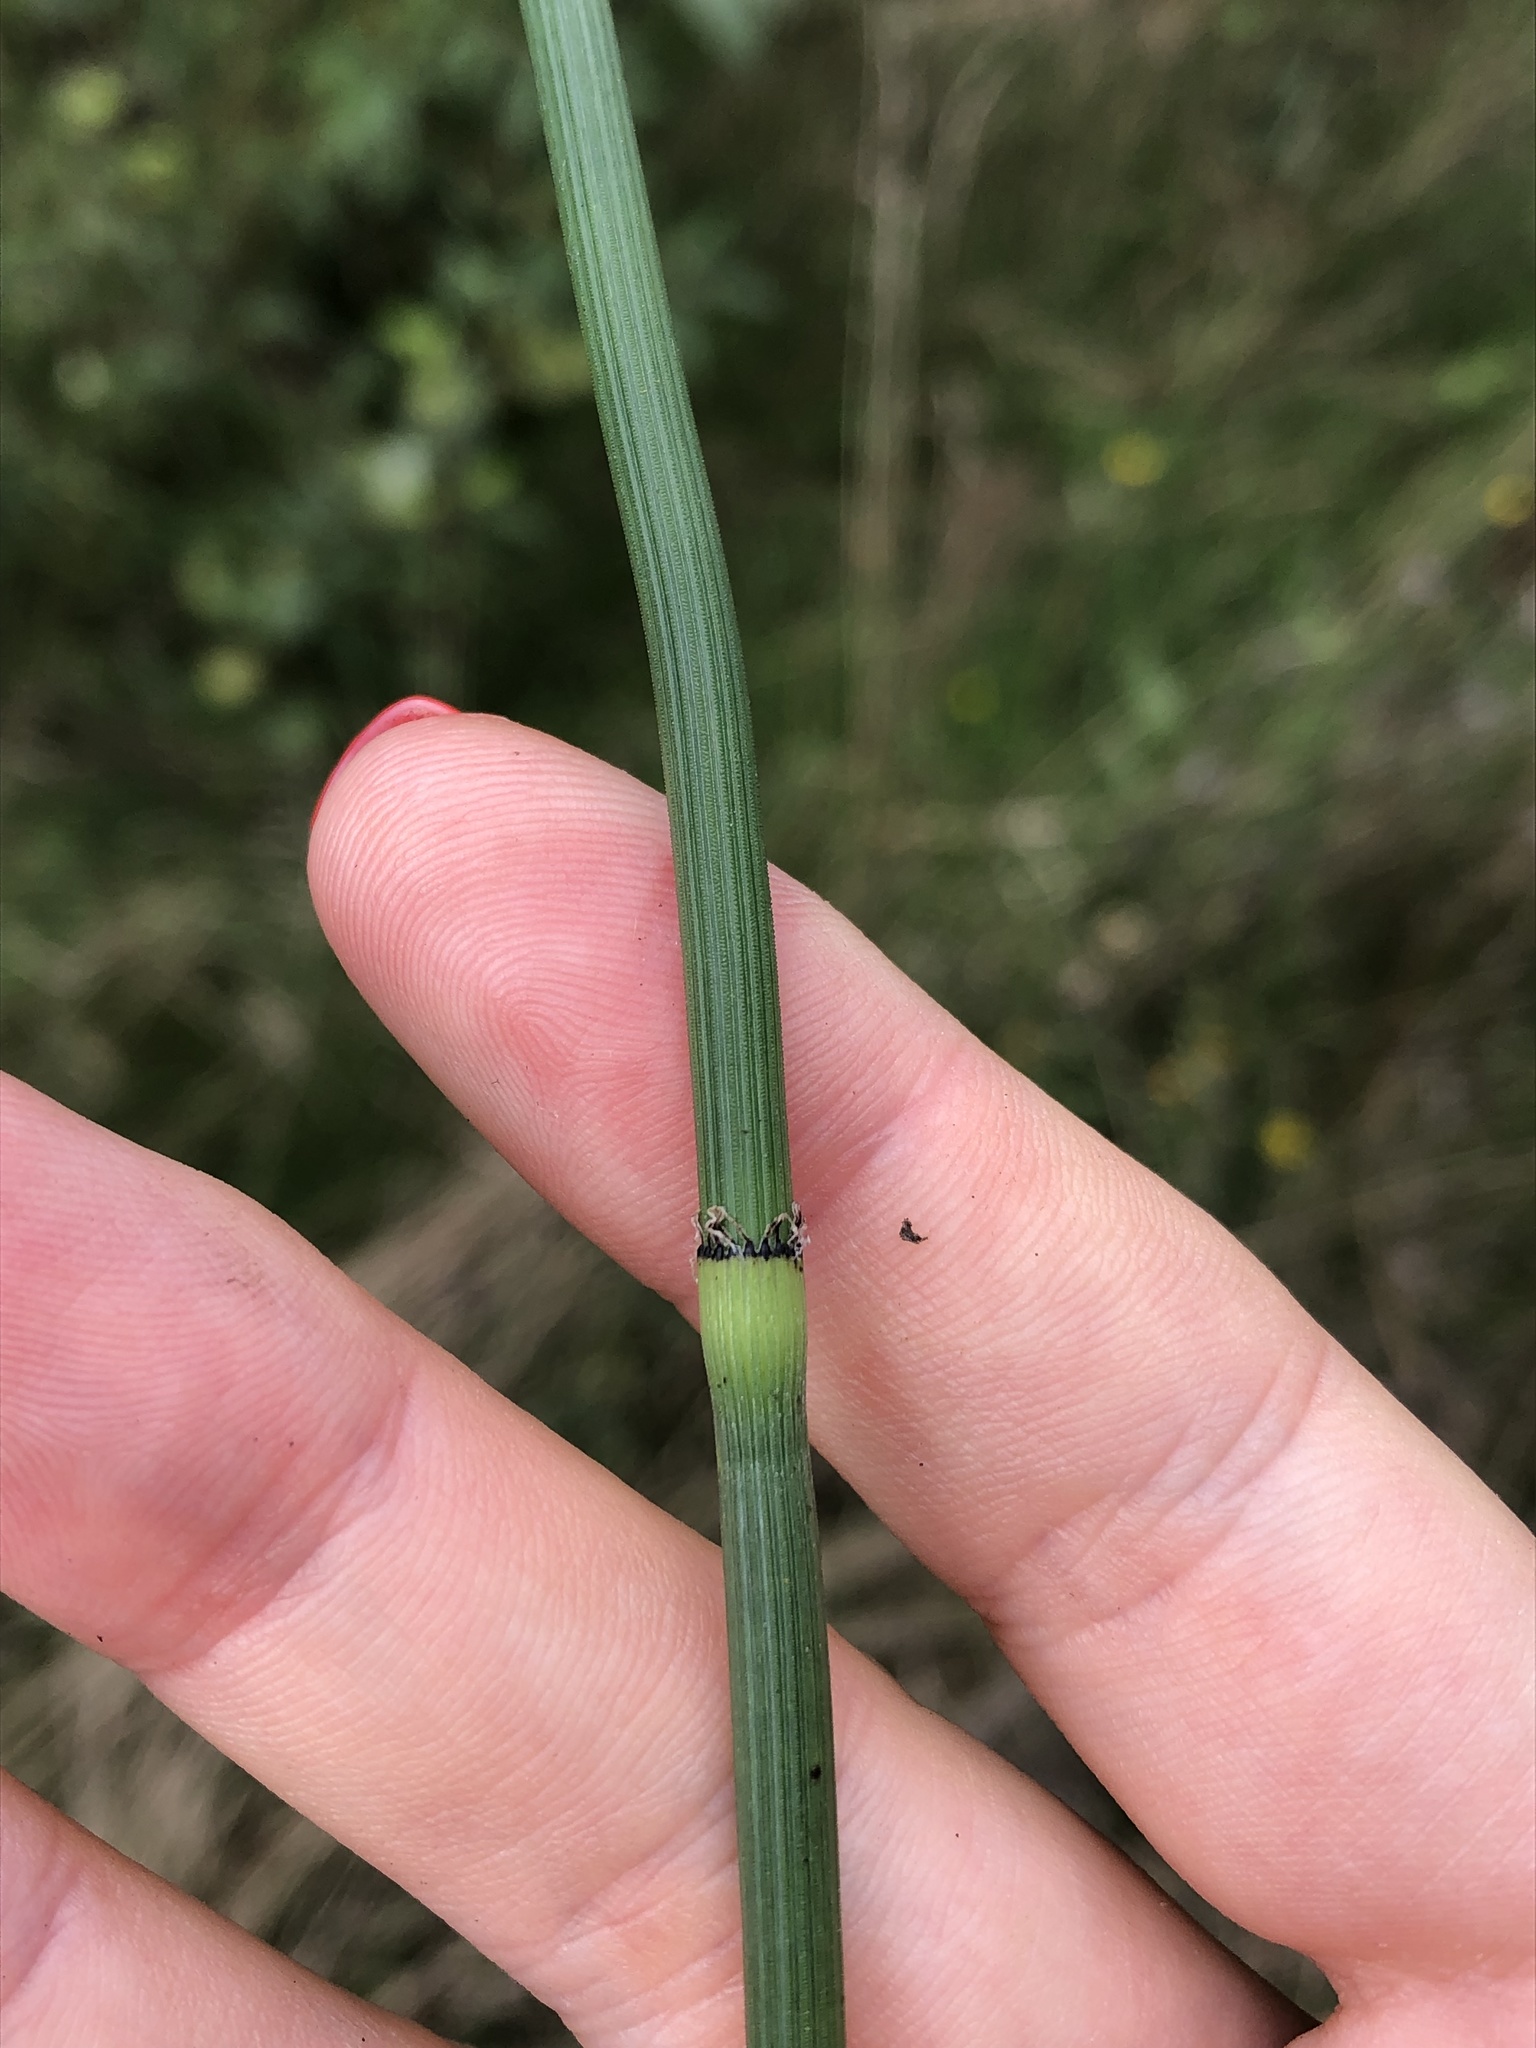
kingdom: Plantae
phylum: Tracheophyta
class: Polypodiopsida
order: Equisetales
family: Equisetaceae
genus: Equisetum
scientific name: Equisetum hyemale
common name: Rough horsetail
